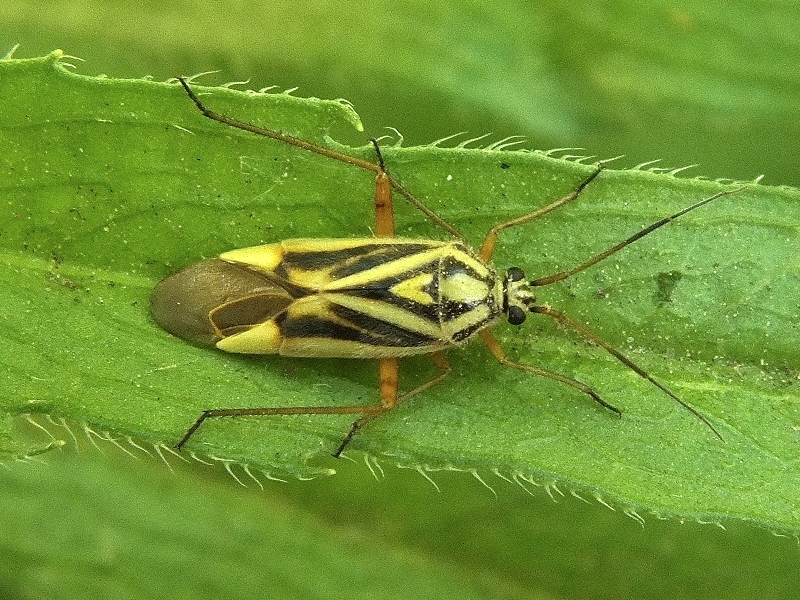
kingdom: Animalia
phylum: Arthropoda
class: Insecta
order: Hemiptera
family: Miridae
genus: Brachycoleus
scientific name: Brachycoleus decolor
